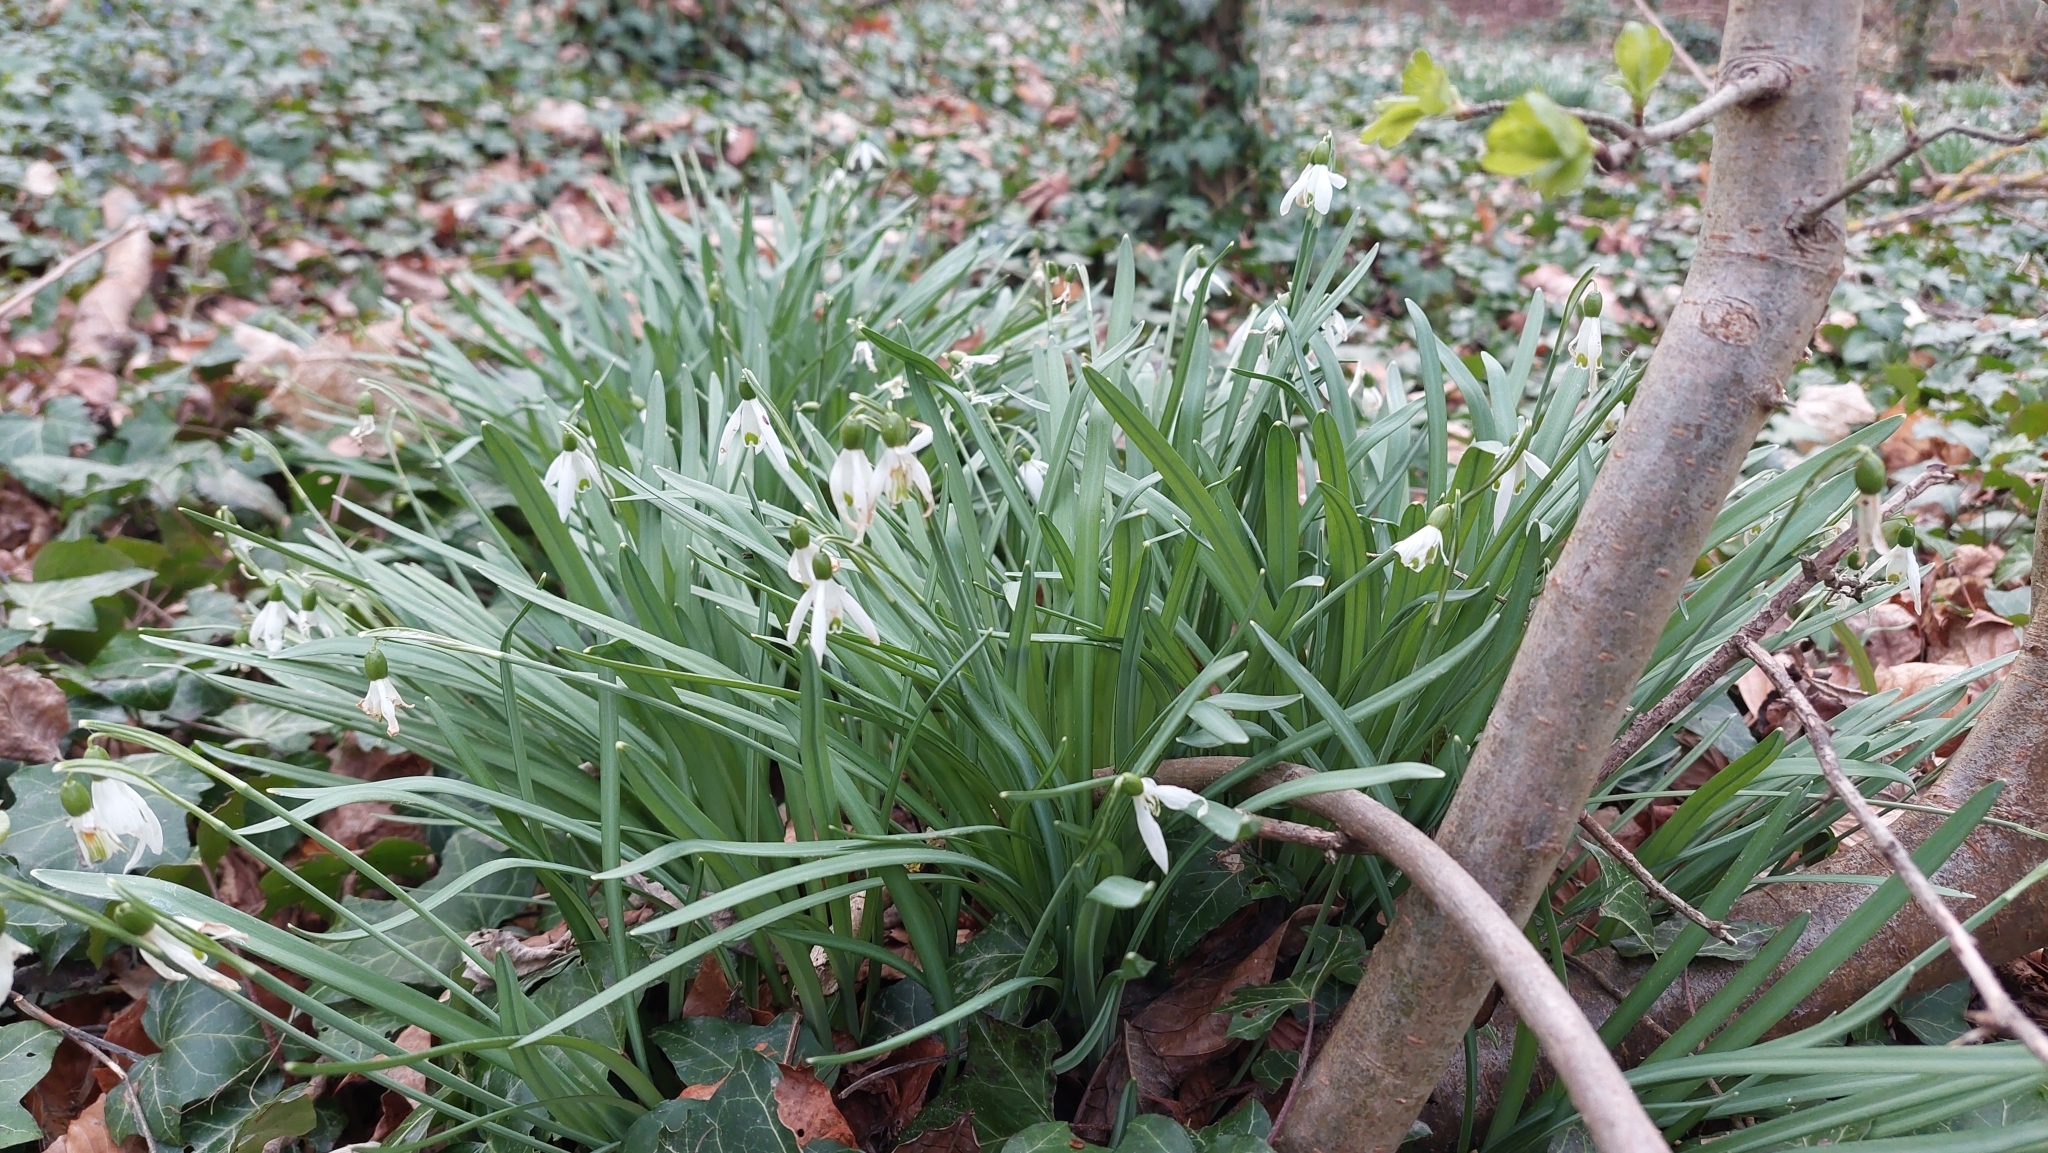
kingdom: Plantae
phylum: Tracheophyta
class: Liliopsida
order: Asparagales
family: Amaryllidaceae
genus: Galanthus
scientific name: Galanthus nivalis
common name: Snowdrop
